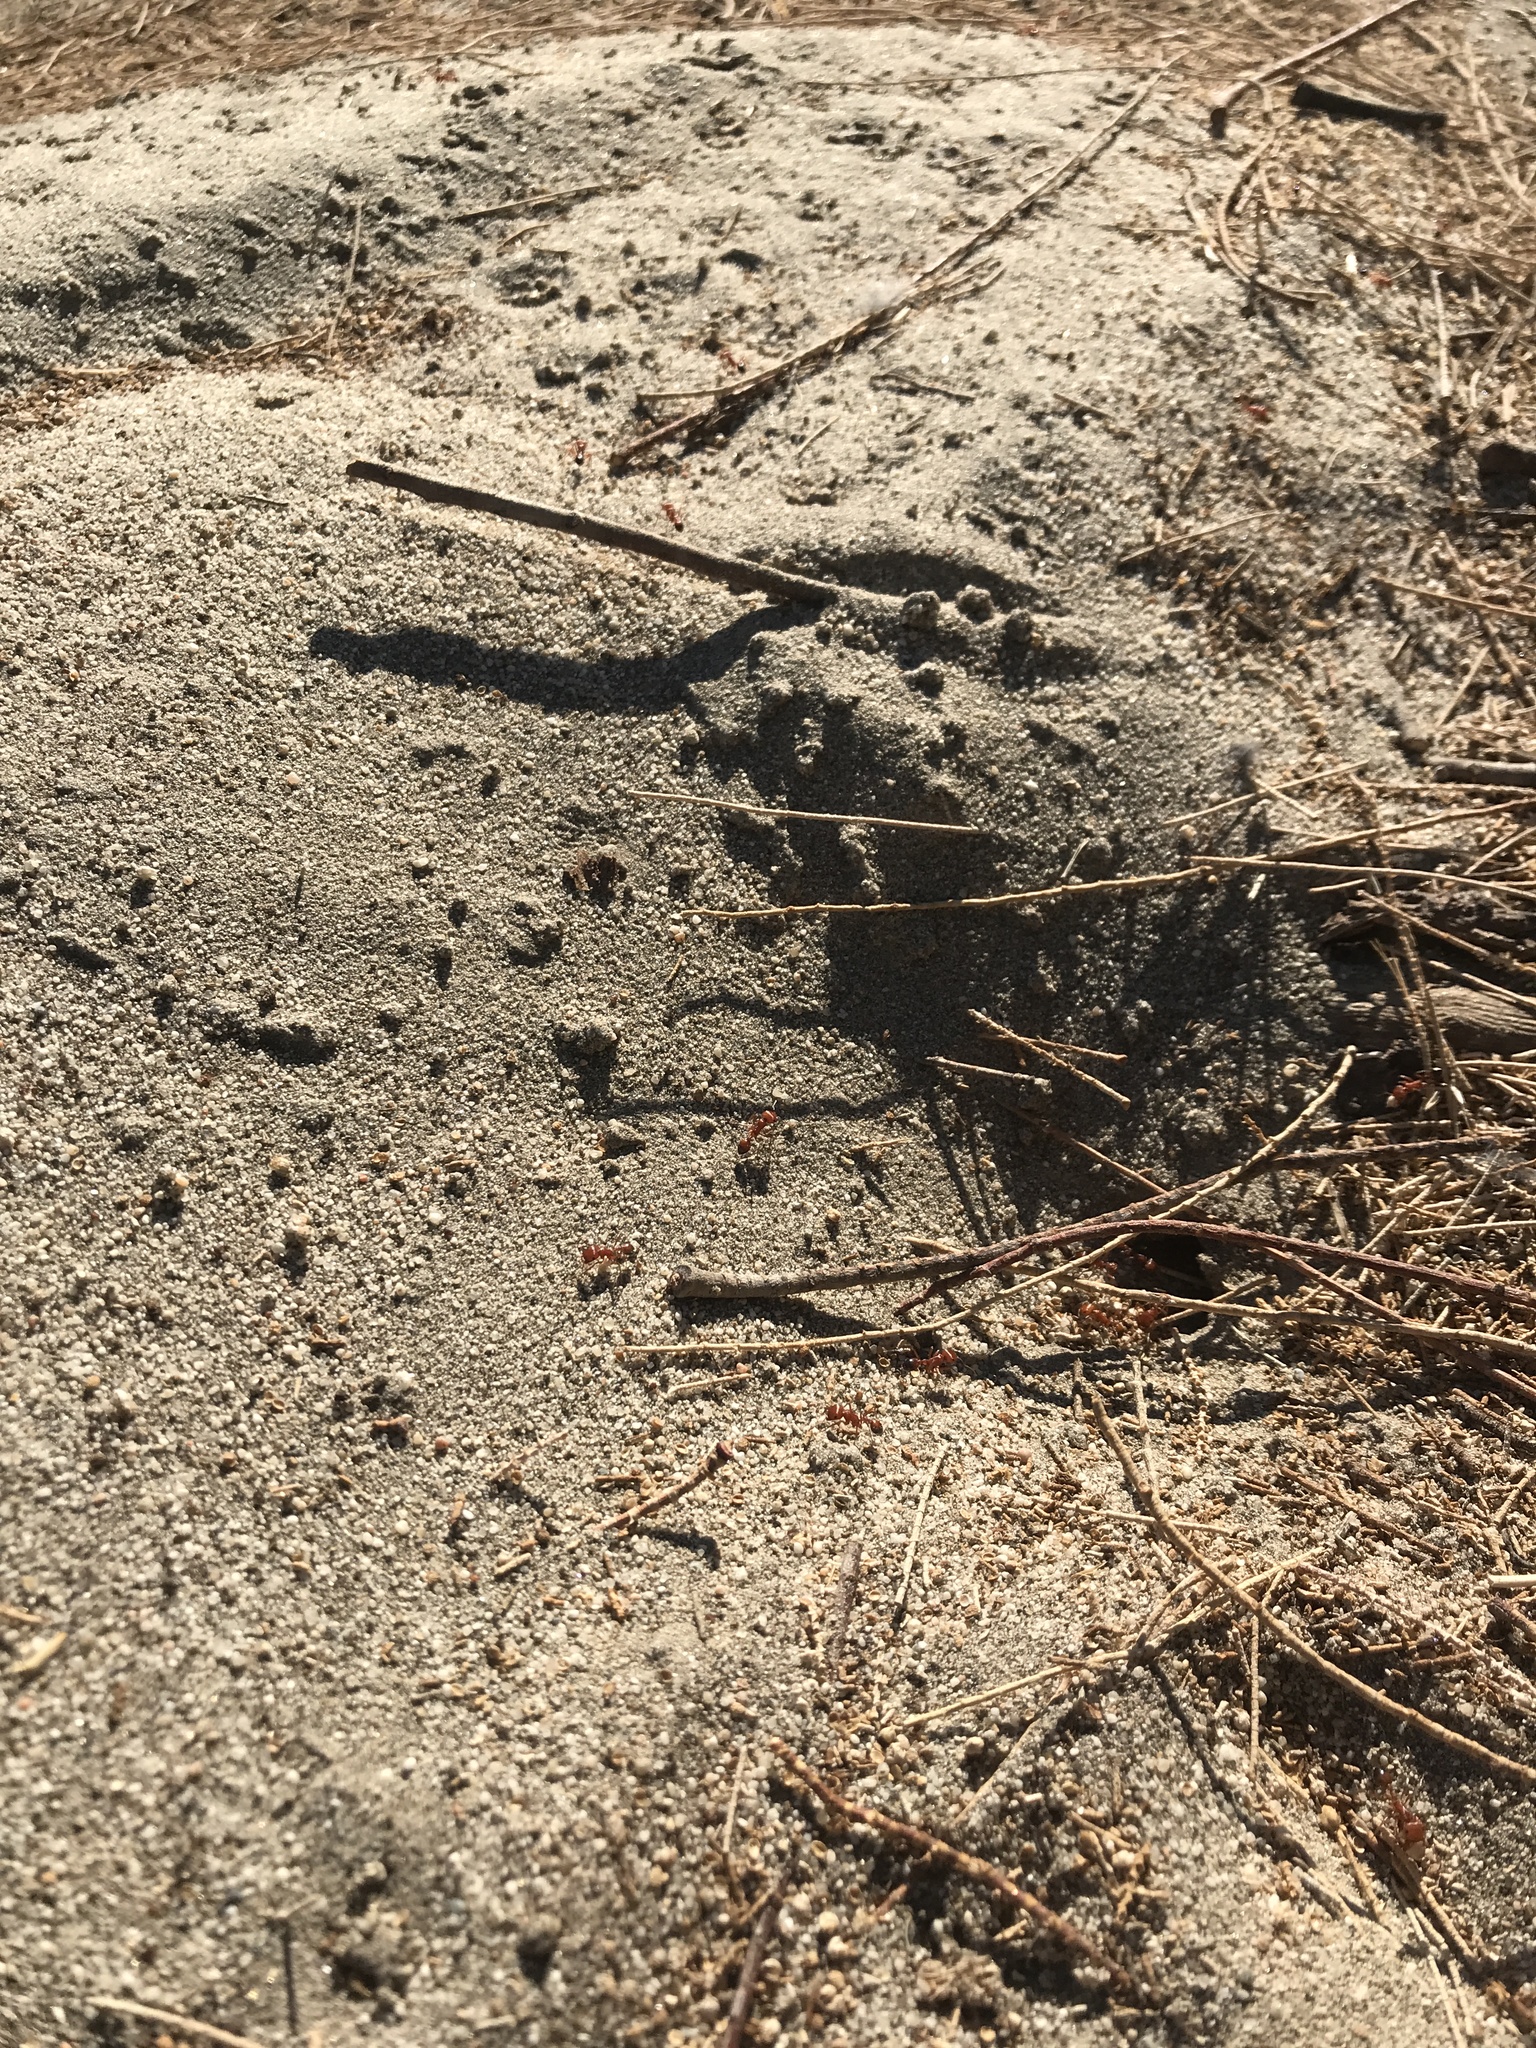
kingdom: Animalia
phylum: Arthropoda
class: Insecta
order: Hymenoptera
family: Formicidae
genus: Pogonomyrmex
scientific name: Pogonomyrmex californicus
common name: California harvester ant
